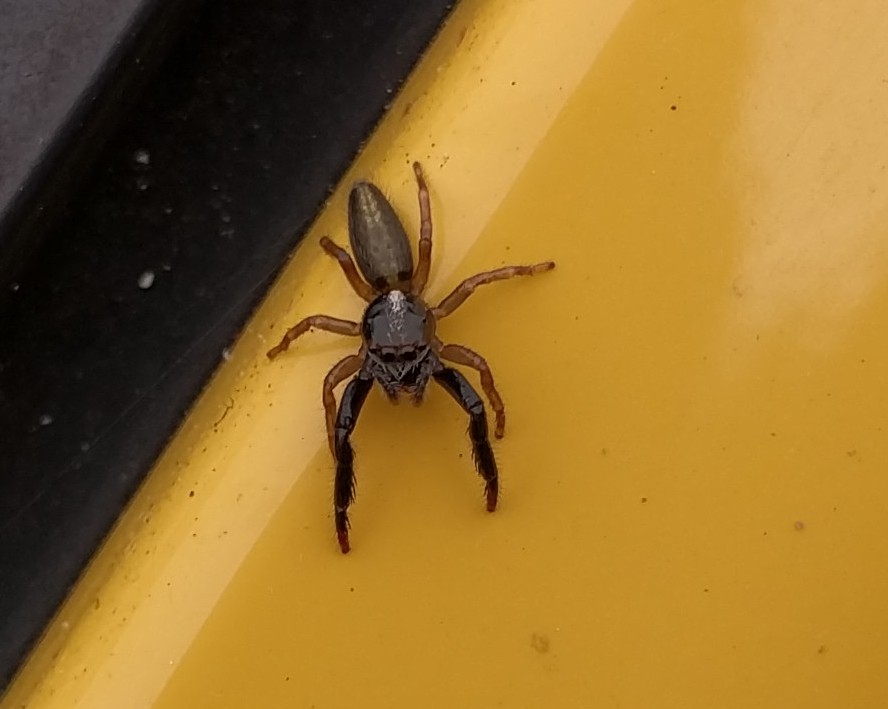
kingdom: Animalia
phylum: Arthropoda
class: Arachnida
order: Araneae
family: Salticidae
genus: Trite
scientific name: Trite planiceps
